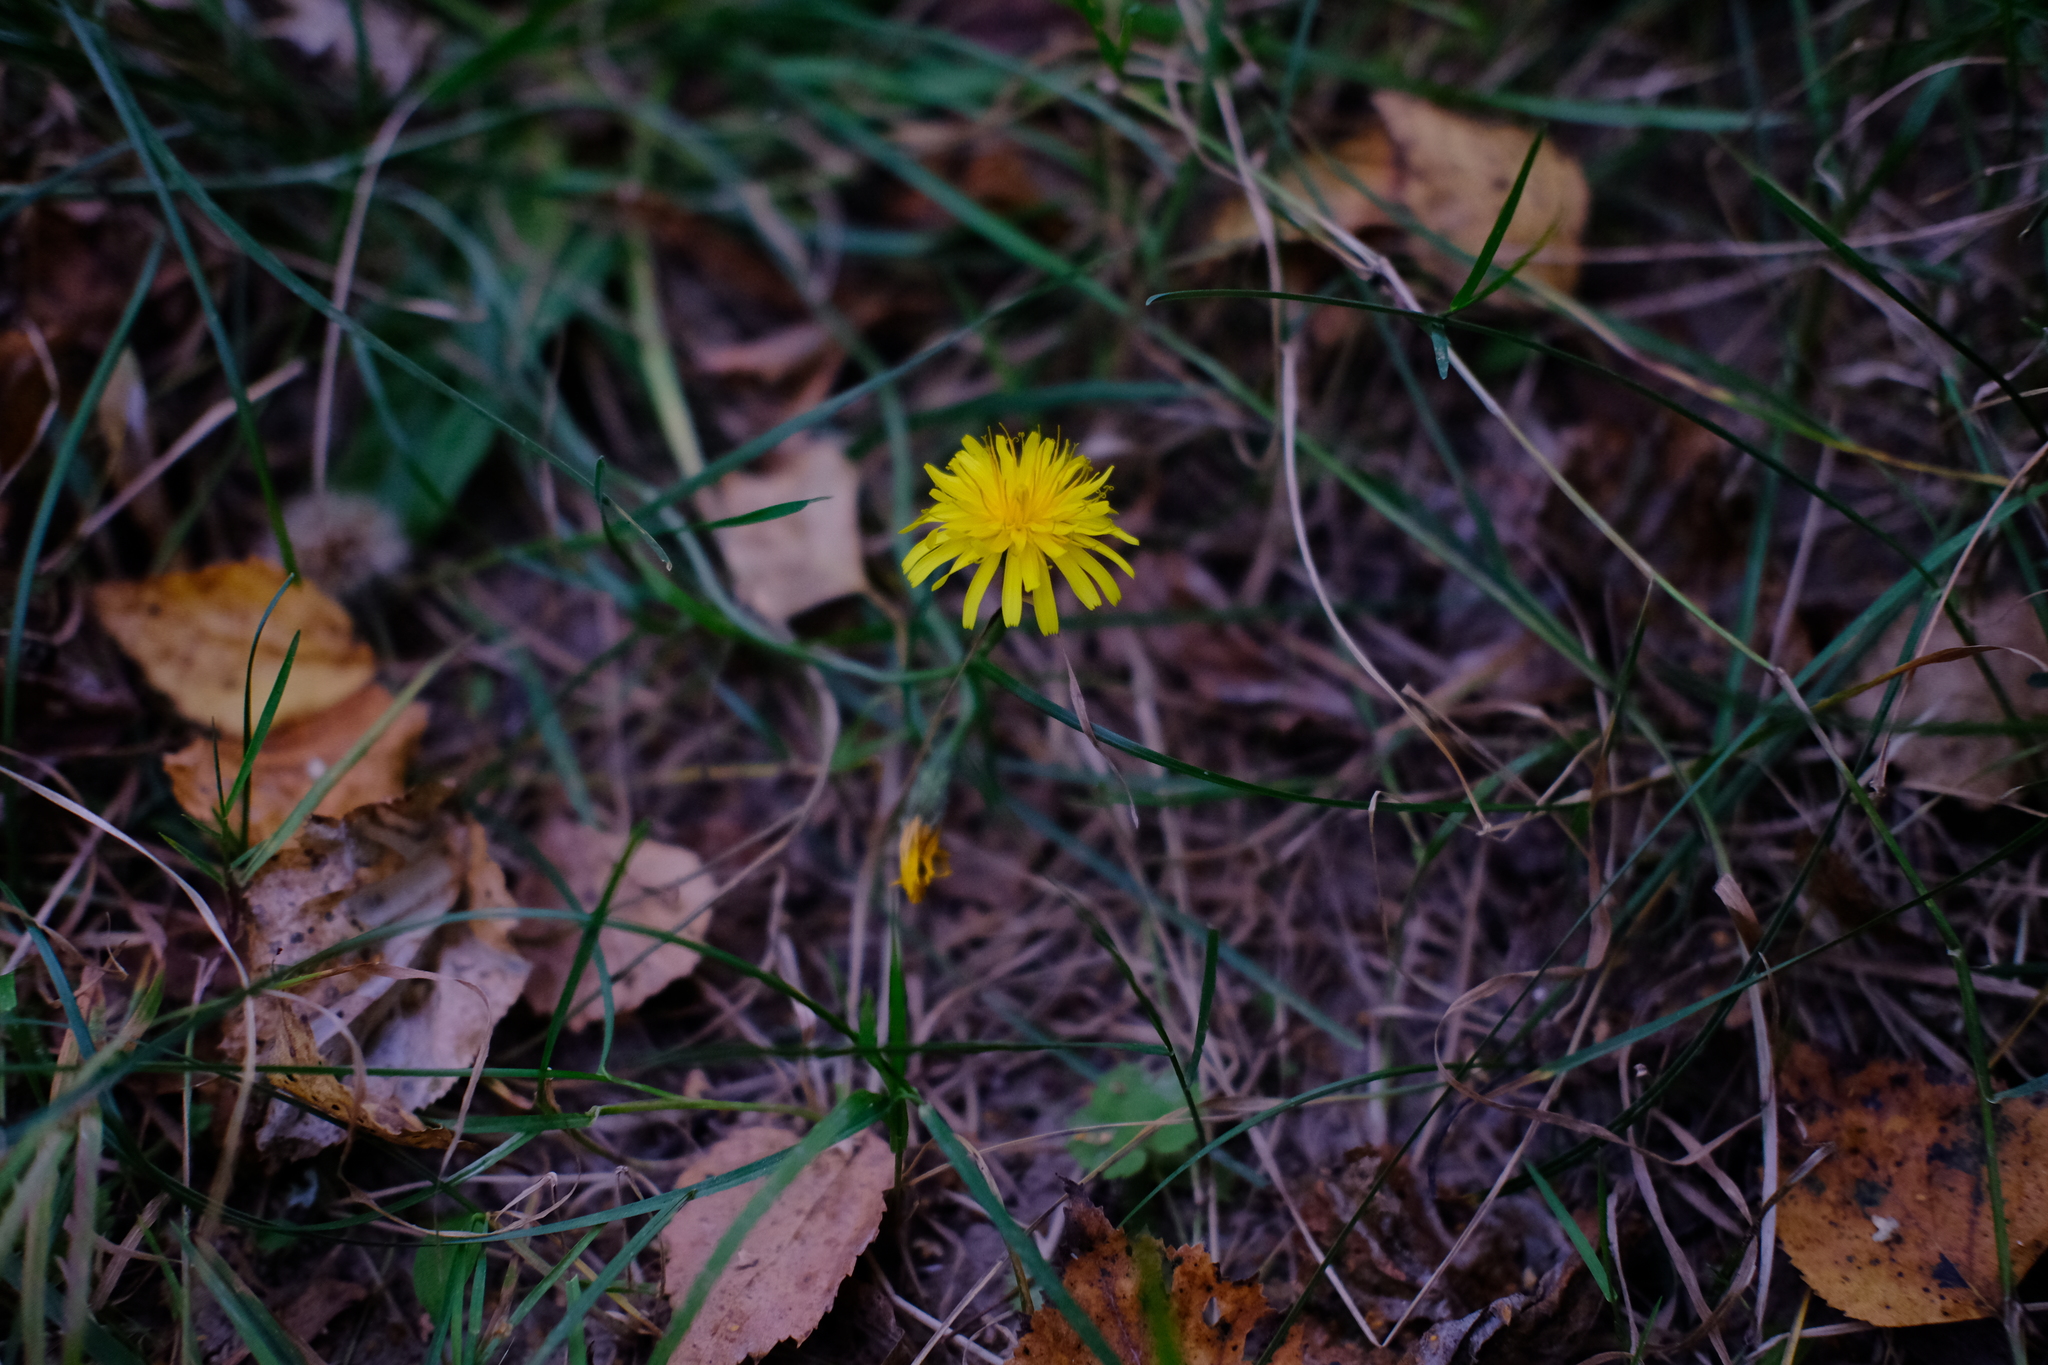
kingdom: Plantae
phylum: Tracheophyta
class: Magnoliopsida
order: Asterales
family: Asteraceae
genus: Scorzoneroides
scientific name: Scorzoneroides autumnalis
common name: Autumn hawkbit
